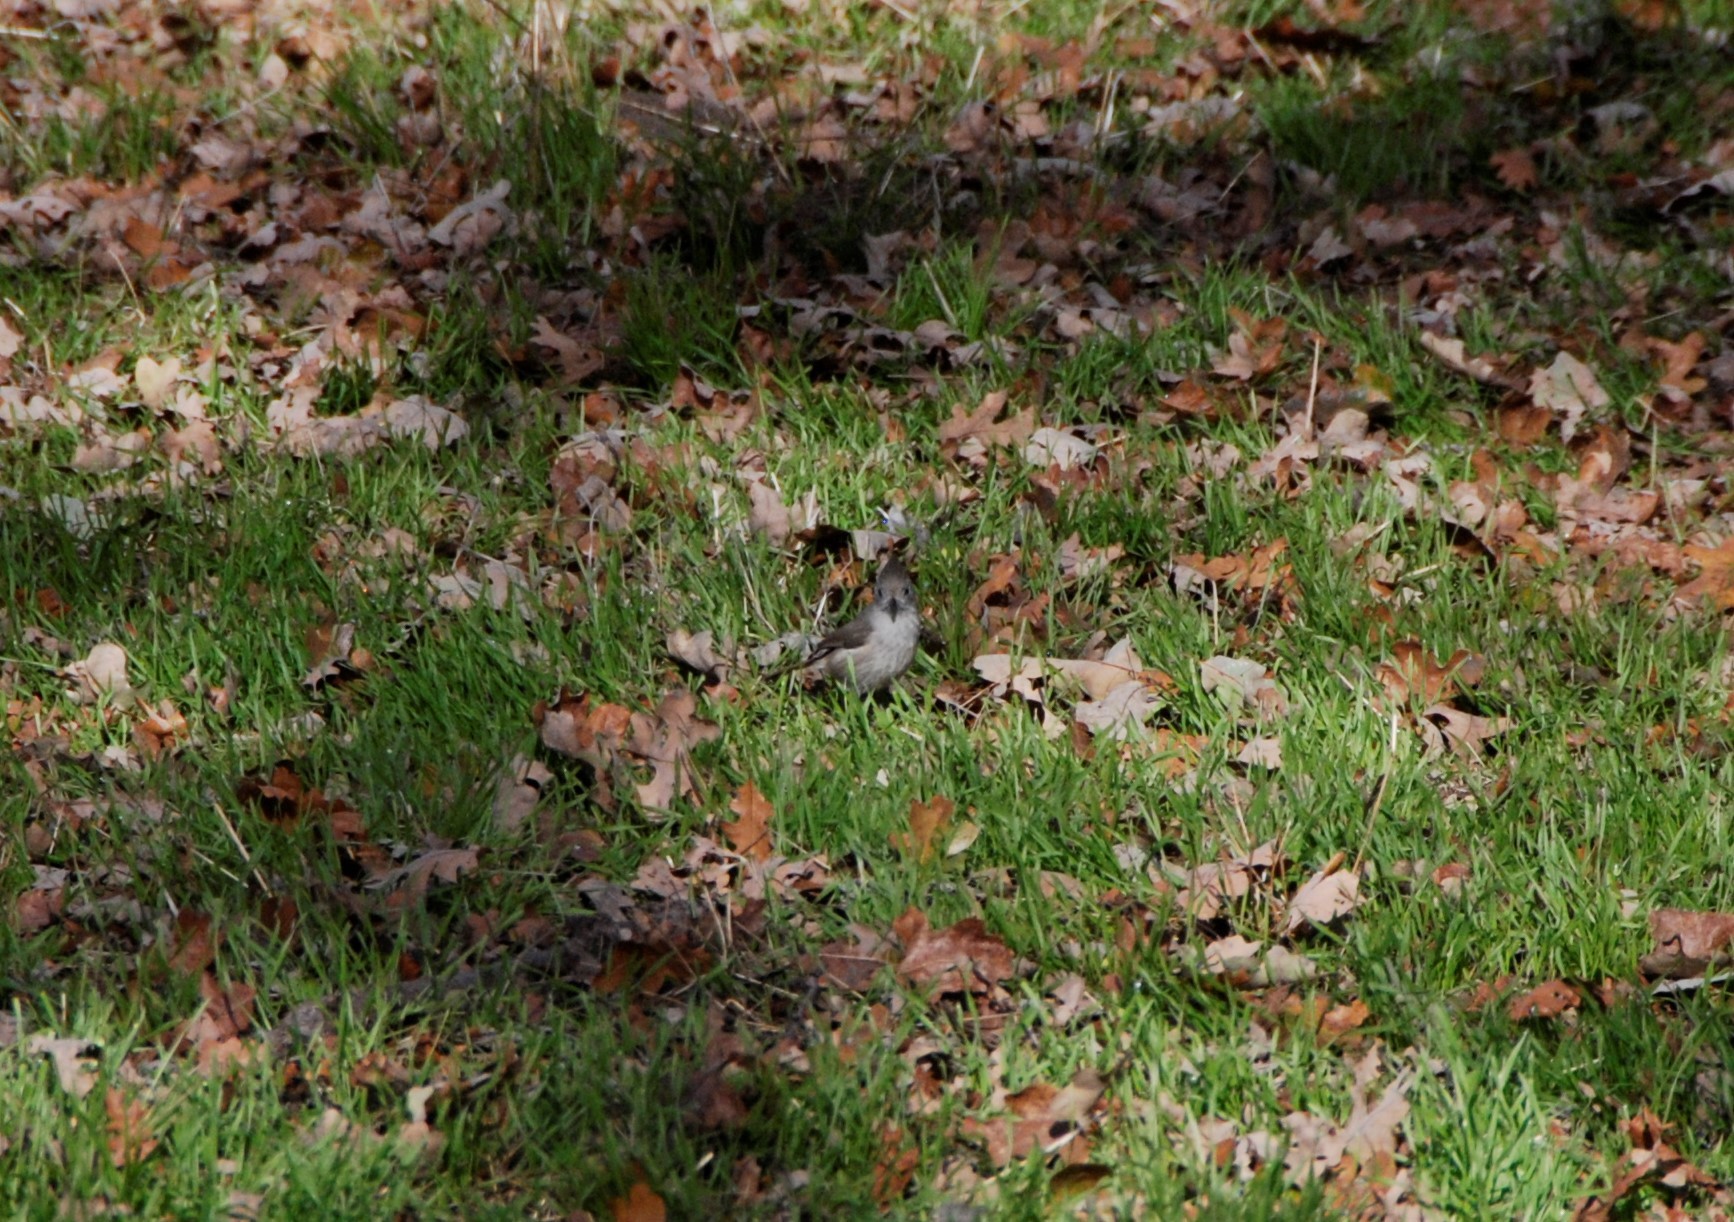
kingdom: Animalia
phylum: Chordata
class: Aves
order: Passeriformes
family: Paridae
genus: Baeolophus
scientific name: Baeolophus inornatus
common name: Oak titmouse
